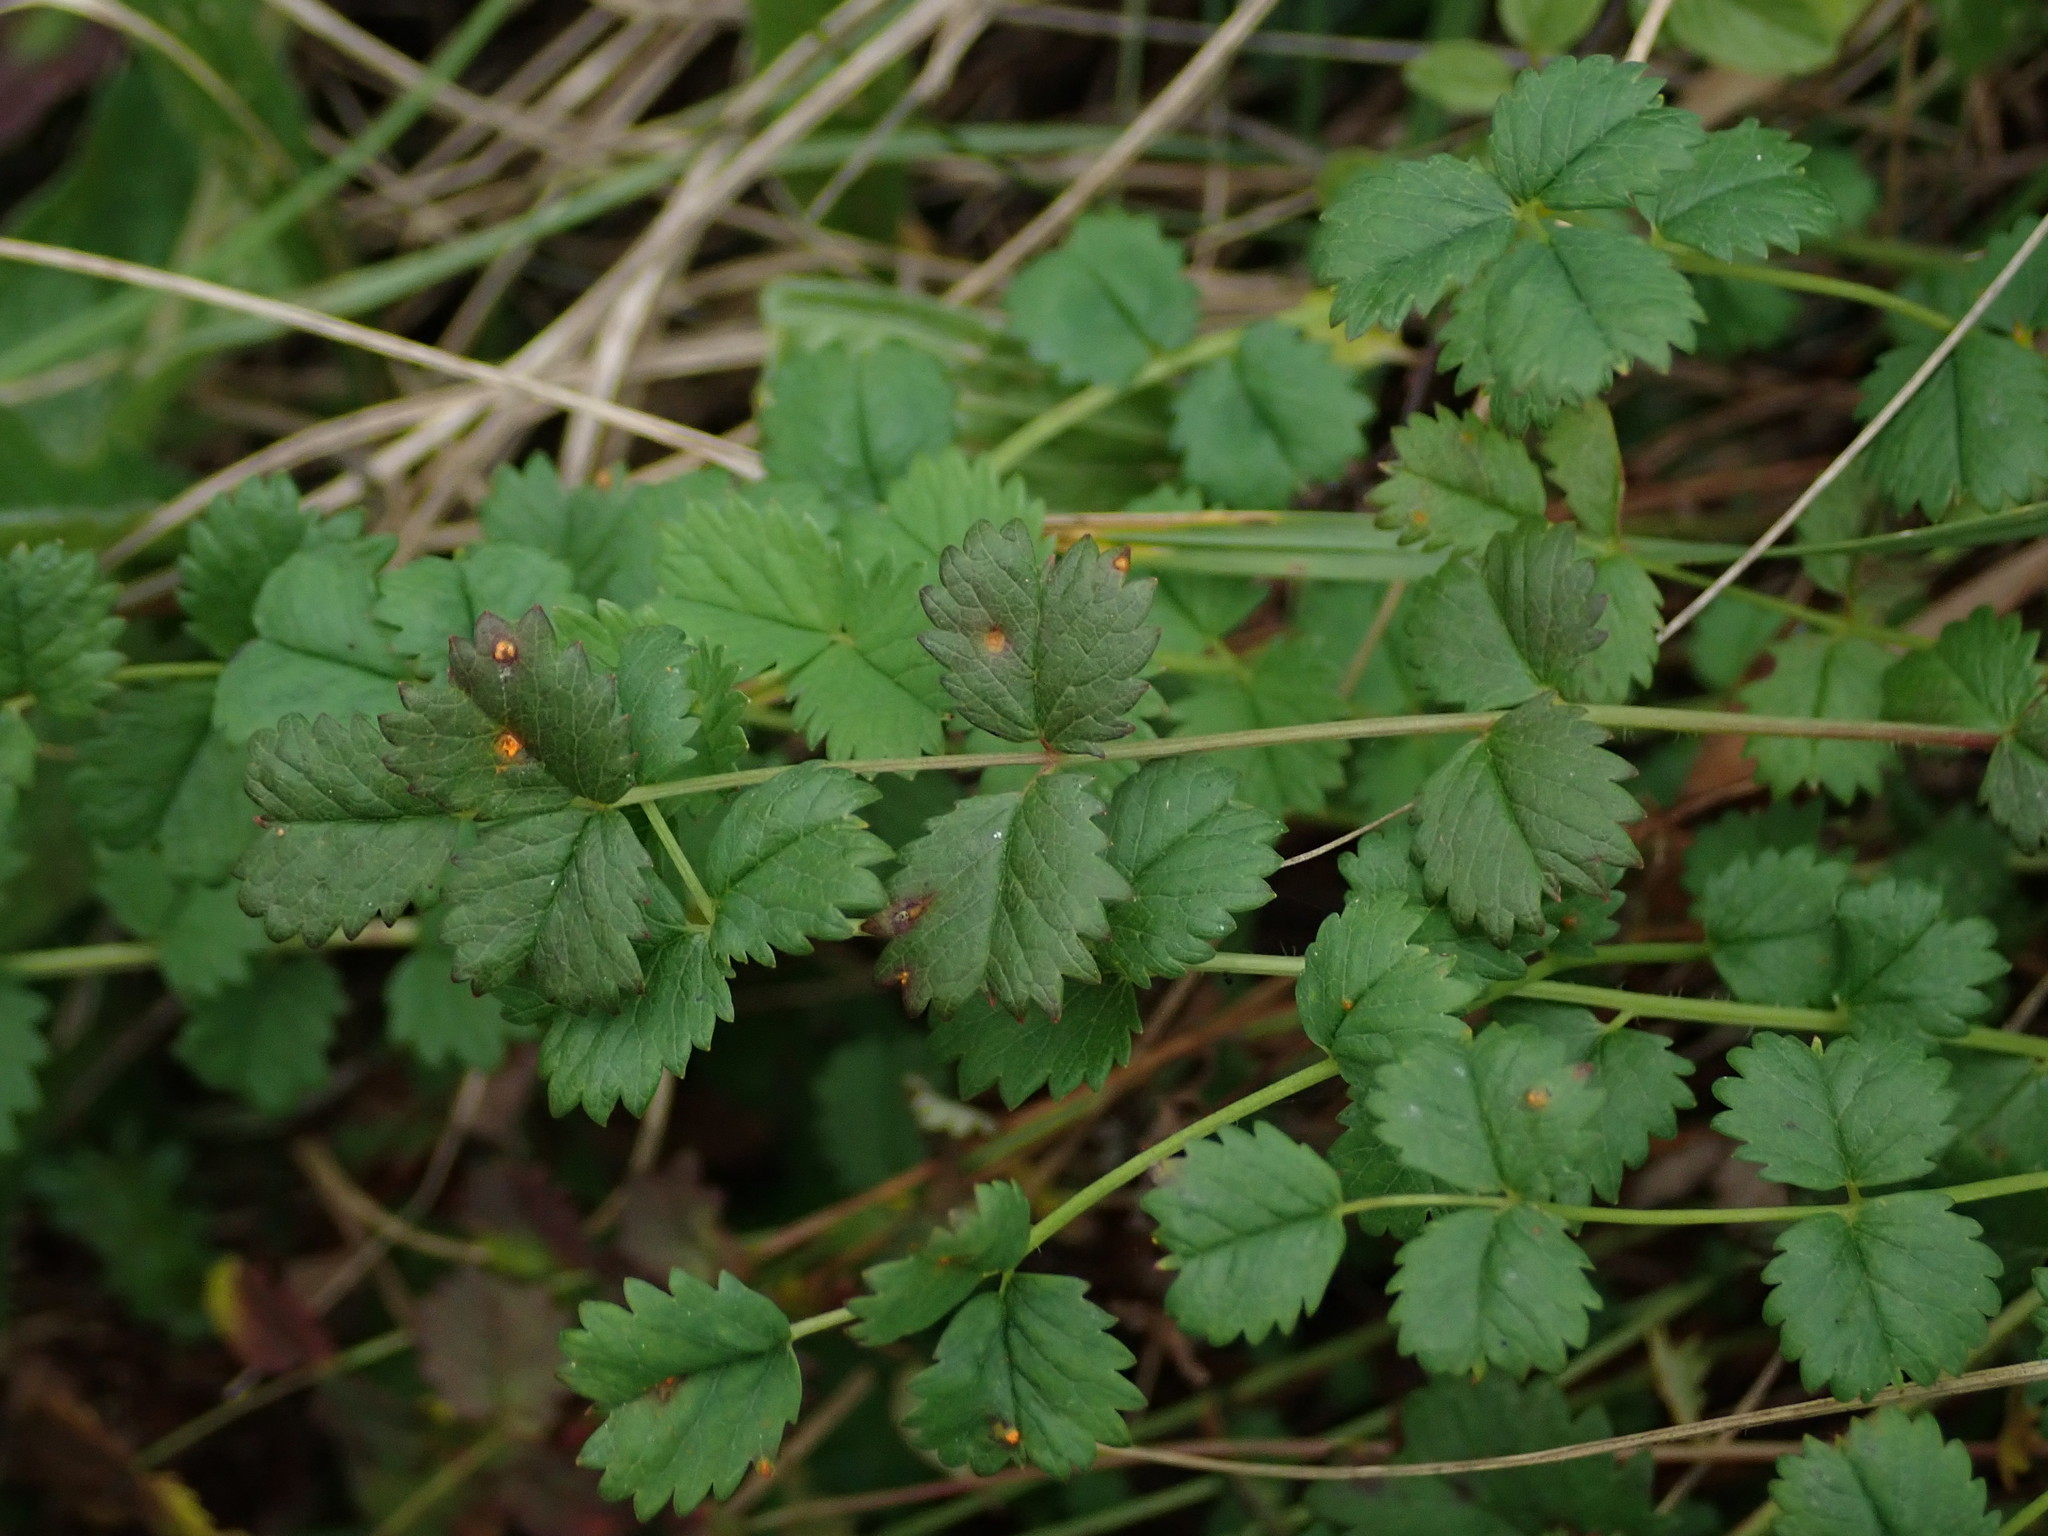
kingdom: Plantae
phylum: Tracheophyta
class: Magnoliopsida
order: Rosales
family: Rosaceae
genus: Poterium
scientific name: Poterium sanguisorba
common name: Salad burnet
